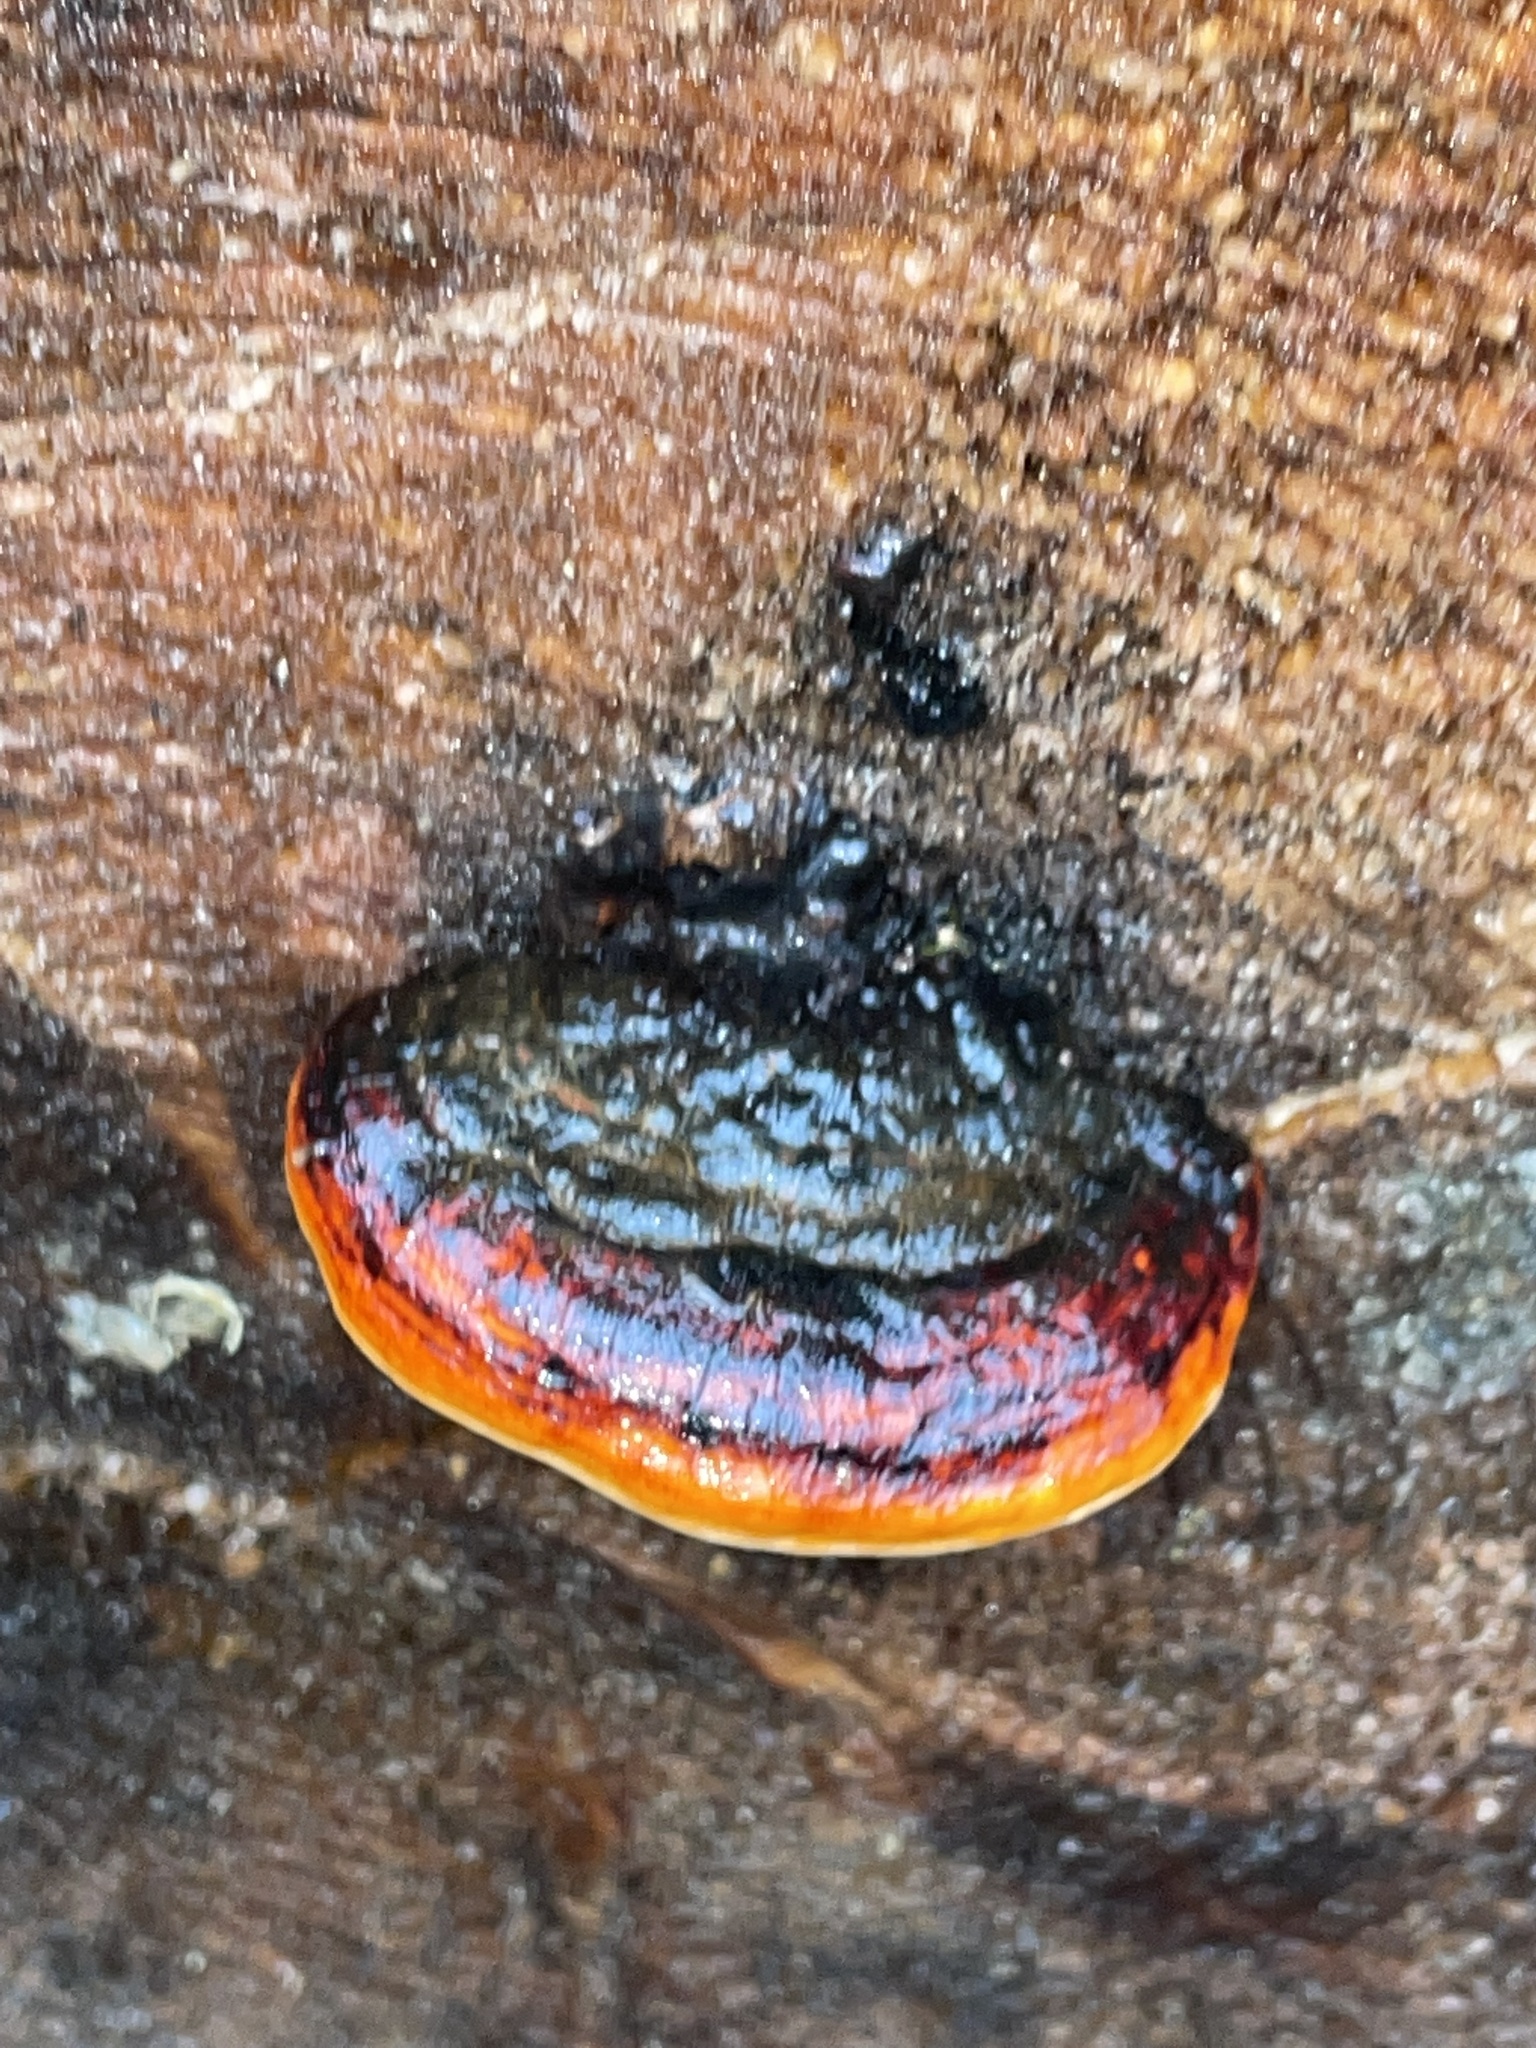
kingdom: Fungi
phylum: Basidiomycota
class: Agaricomycetes
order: Polyporales
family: Fomitopsidaceae
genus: Fomitopsis
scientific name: Fomitopsis mounceae
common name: Northern red belt
